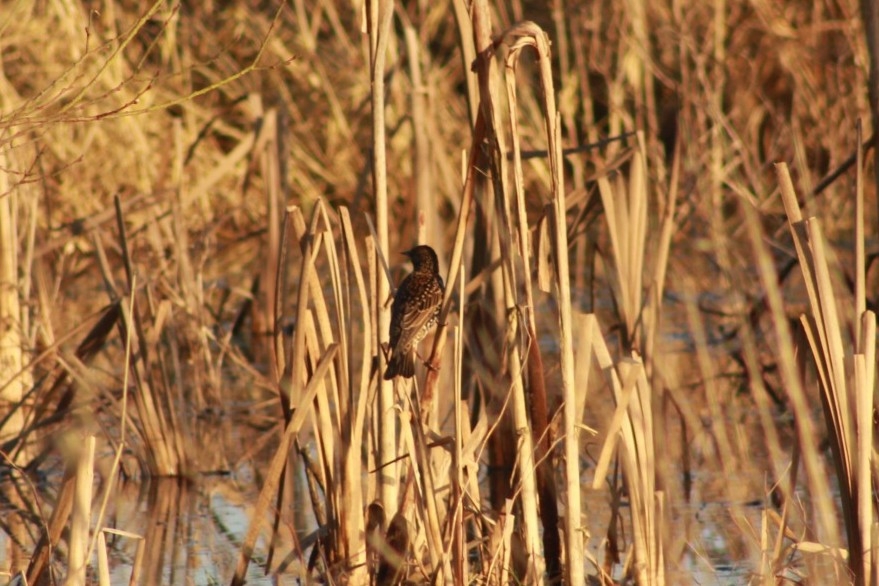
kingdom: Animalia
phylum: Chordata
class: Aves
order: Passeriformes
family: Sturnidae
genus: Sturnus
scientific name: Sturnus vulgaris
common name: Common starling
